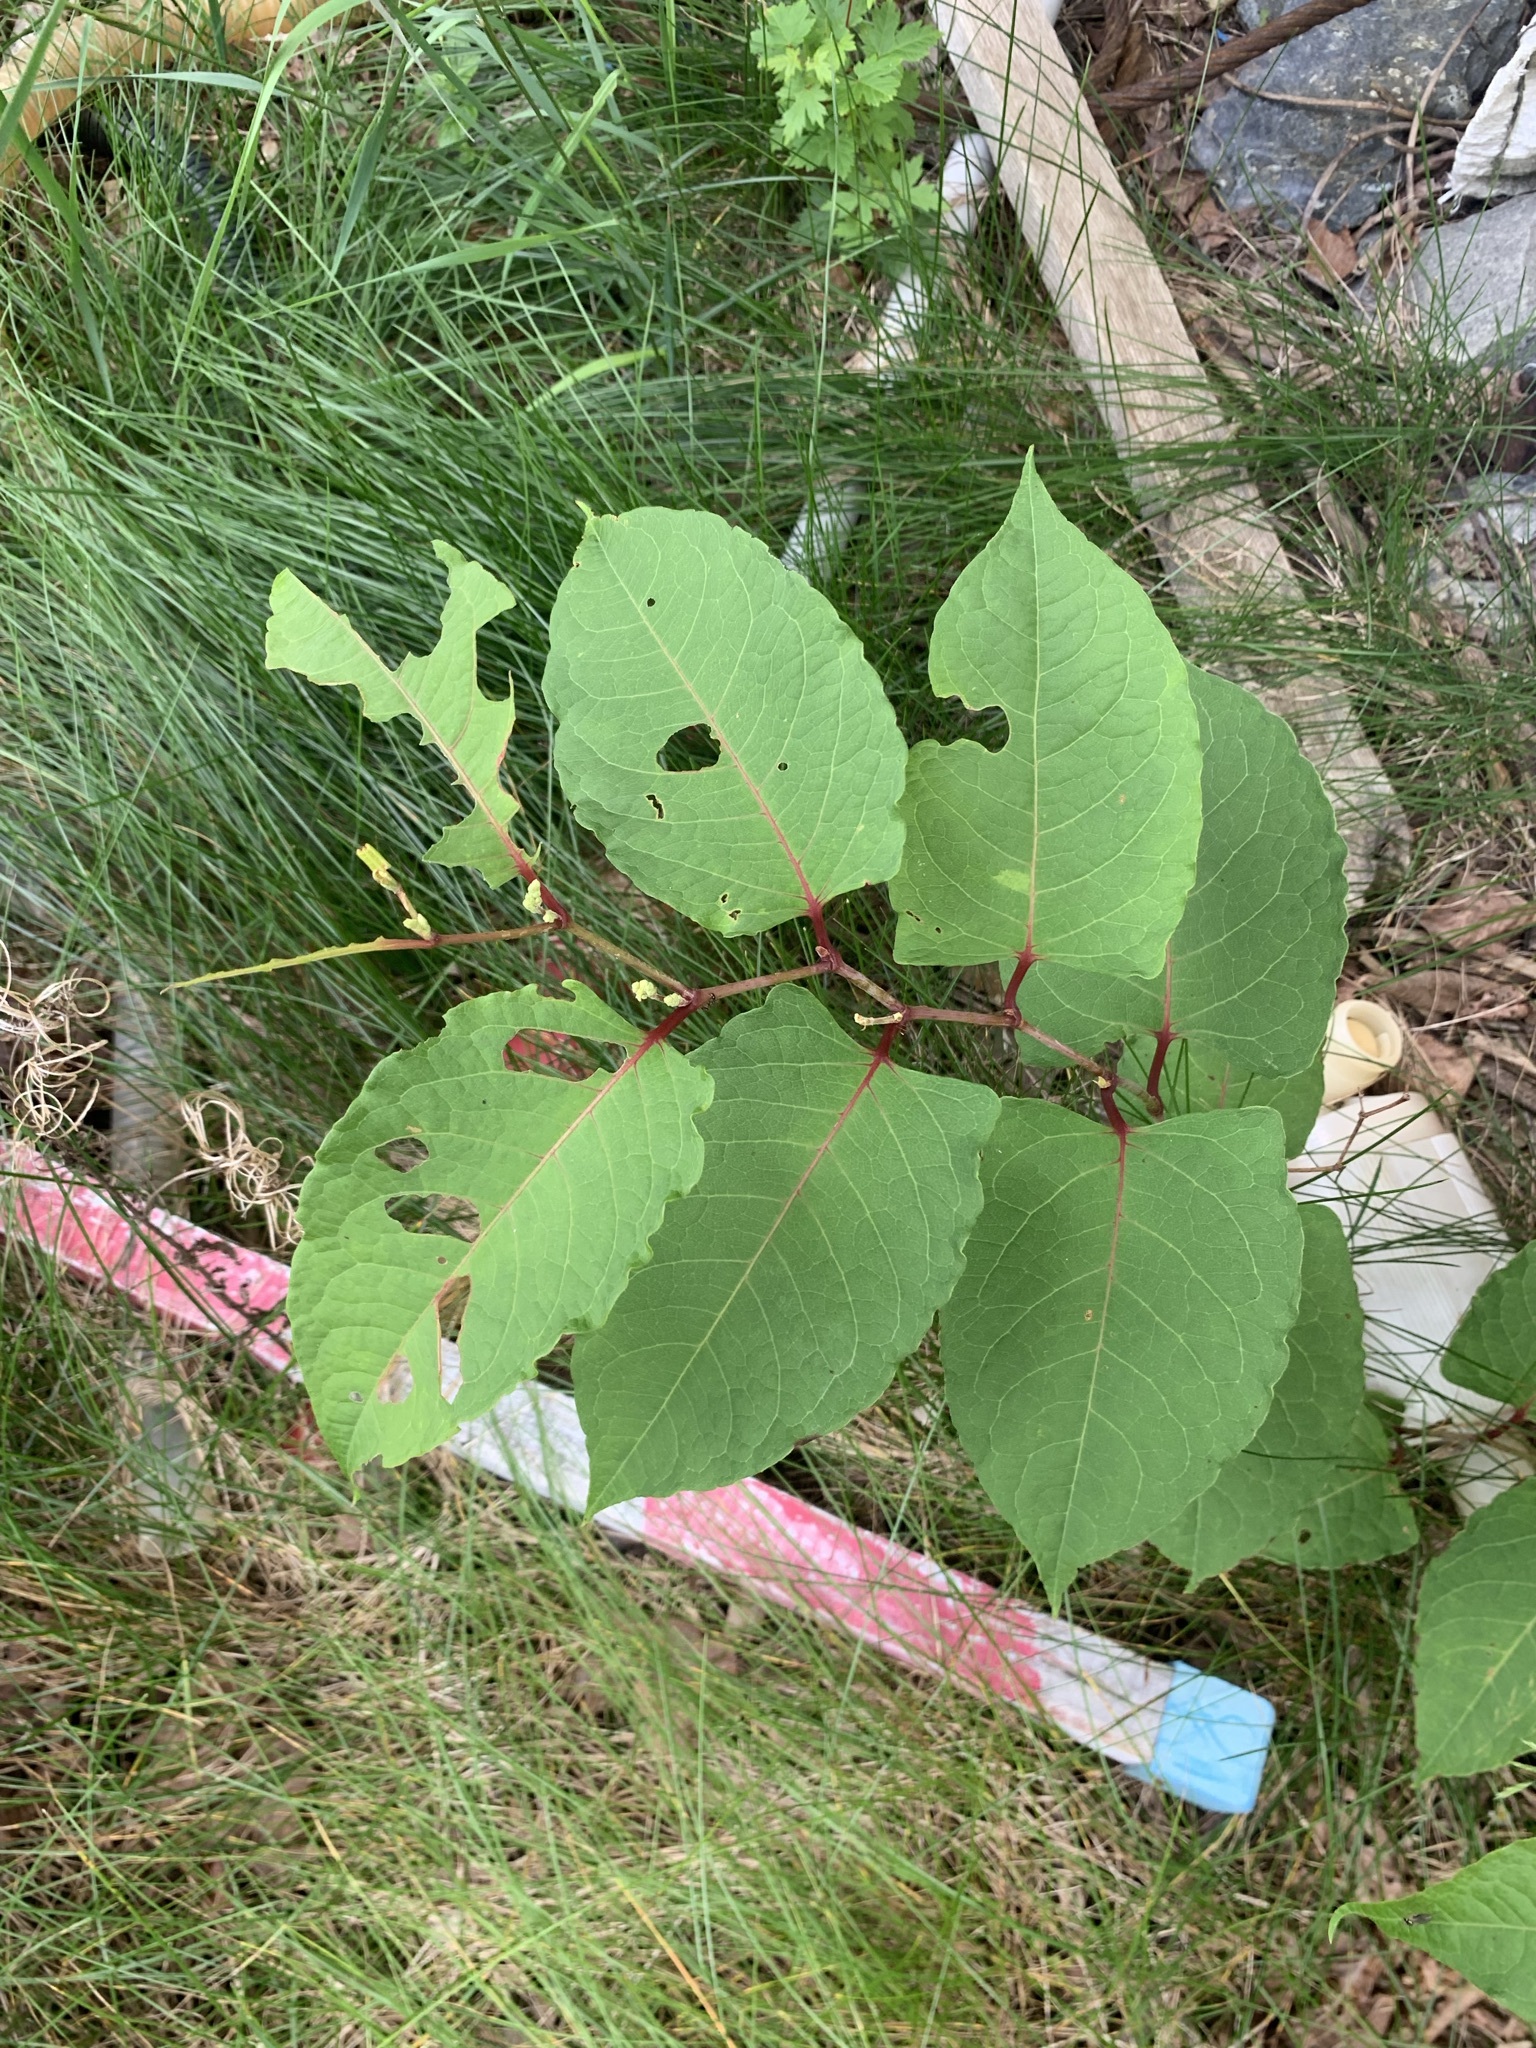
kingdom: Plantae
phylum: Tracheophyta
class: Magnoliopsida
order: Caryophyllales
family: Polygonaceae
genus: Reynoutria
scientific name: Reynoutria japonica
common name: Japanese knotweed
